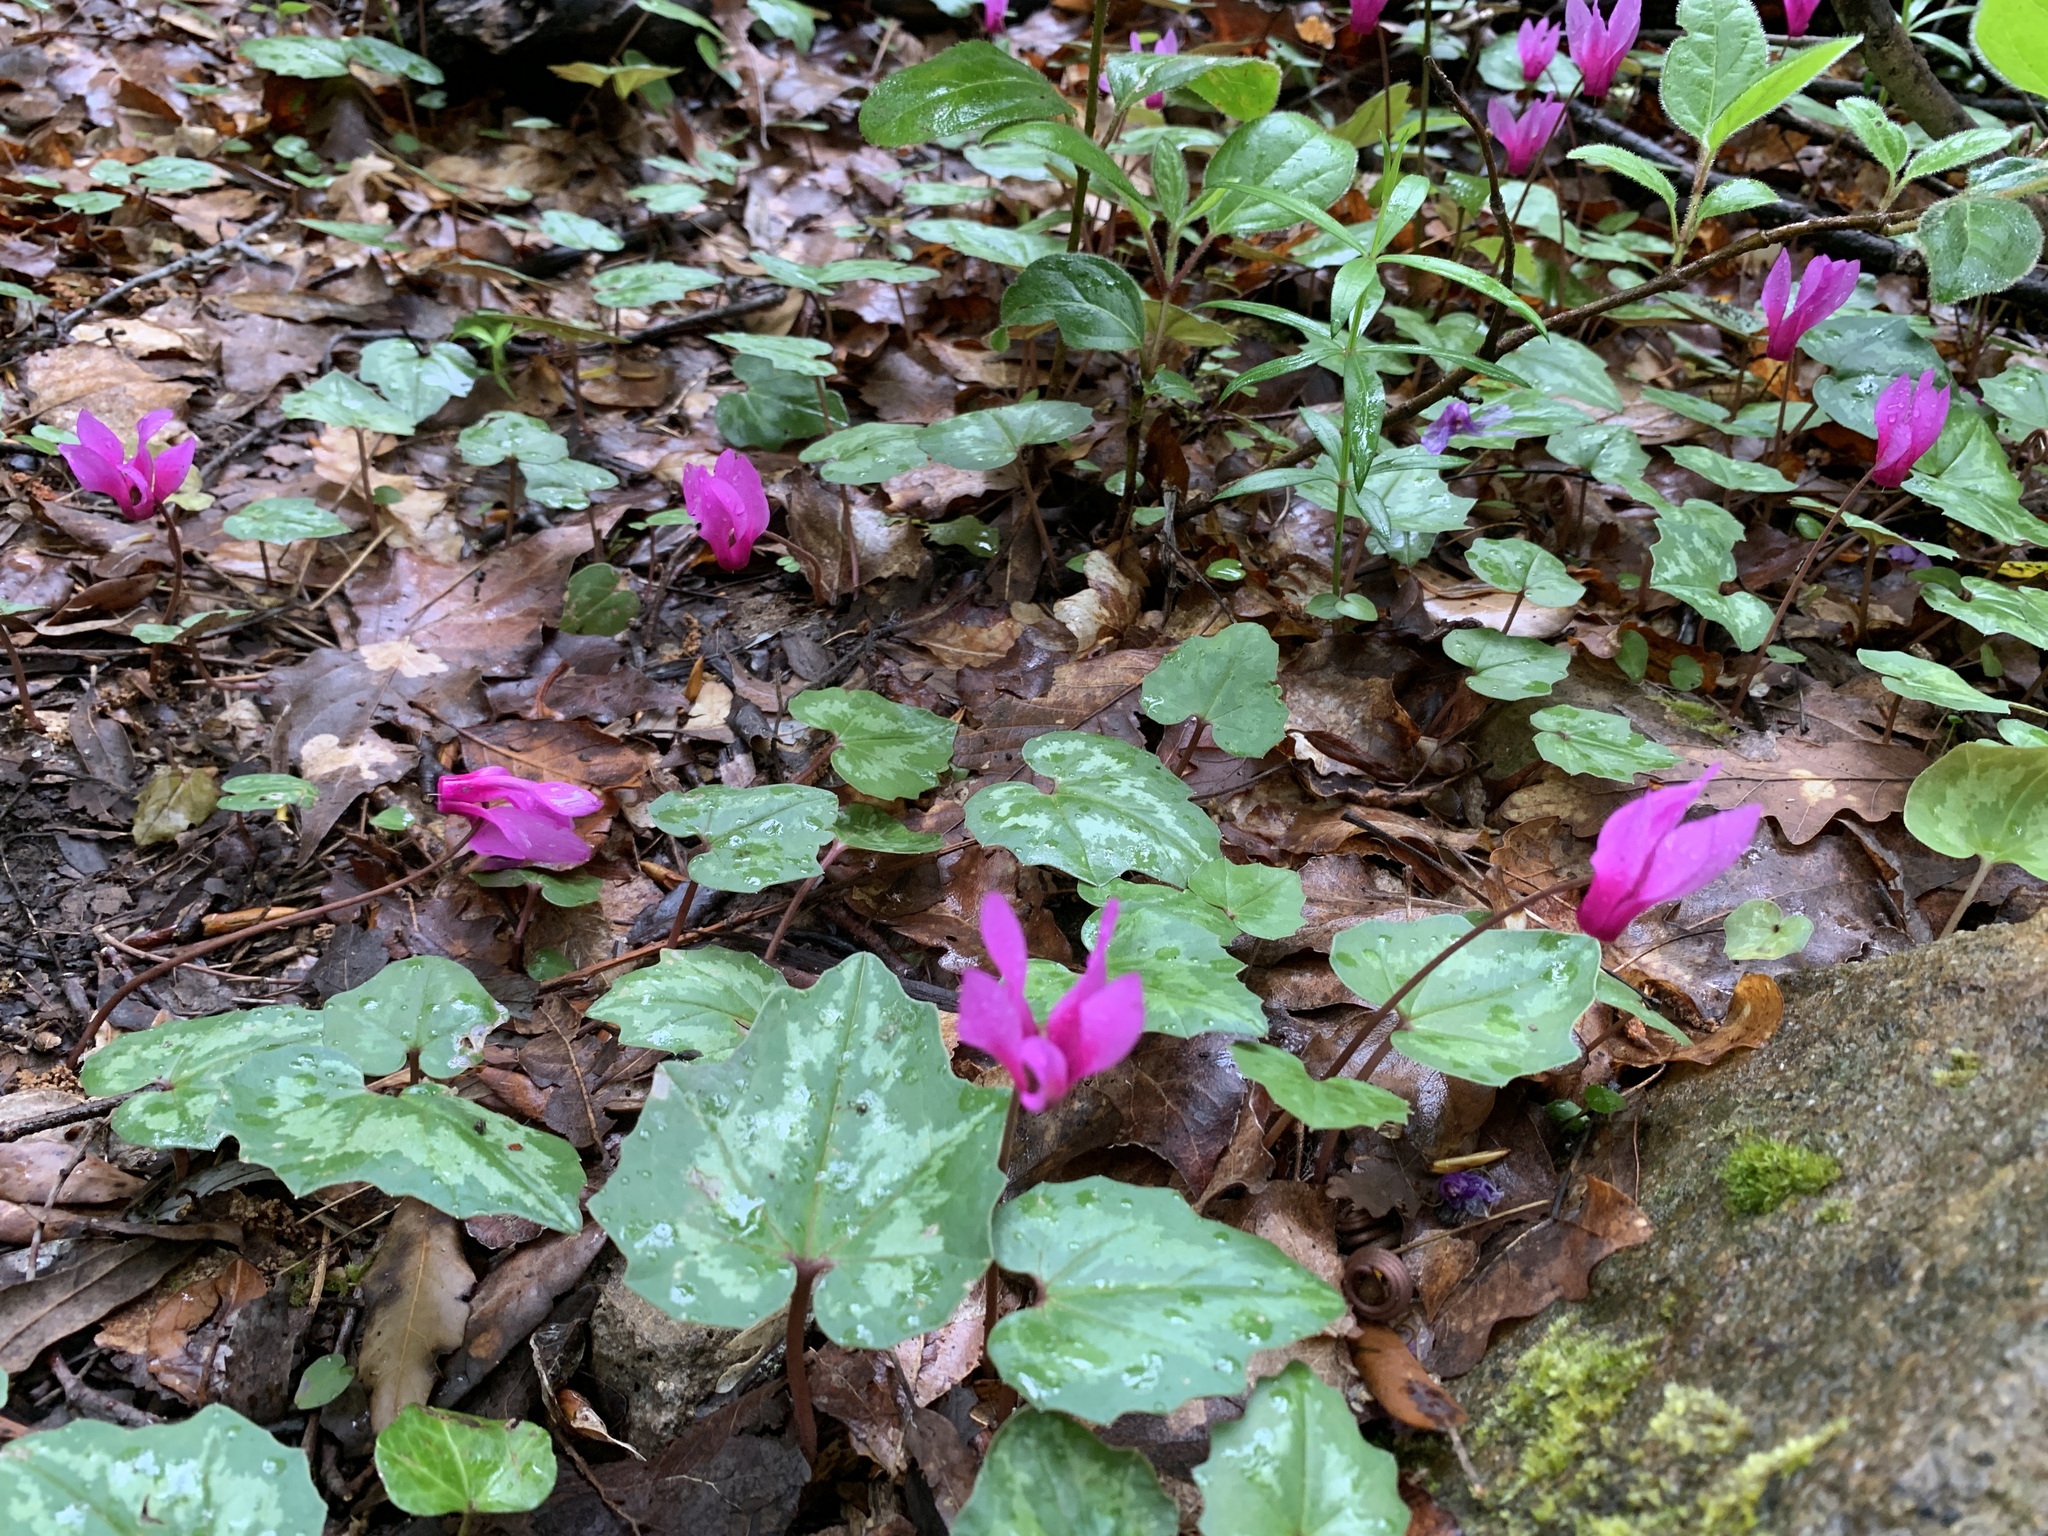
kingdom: Plantae
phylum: Tracheophyta
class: Magnoliopsida
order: Ericales
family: Primulaceae
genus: Cyclamen
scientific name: Cyclamen repandum
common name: Spring sowbread
